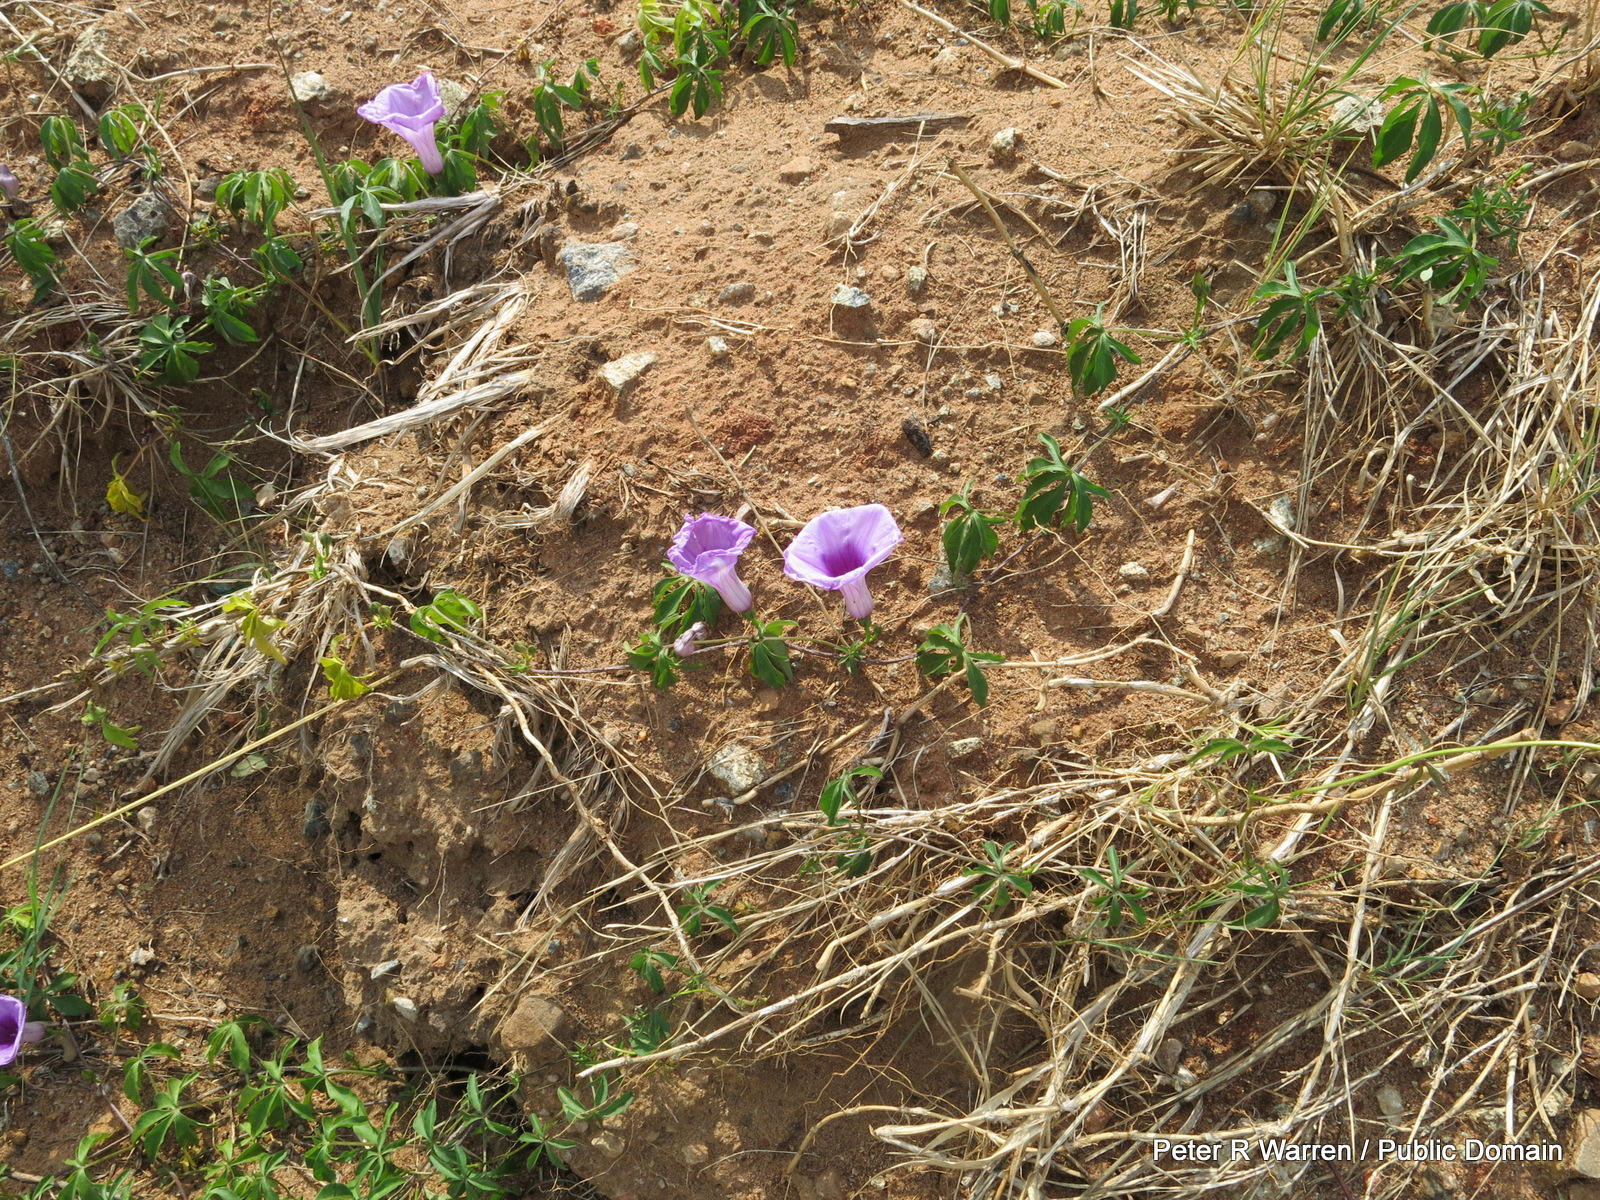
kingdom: Plantae
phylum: Tracheophyta
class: Magnoliopsida
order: Solanales
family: Convolvulaceae
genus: Ipomoea
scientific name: Ipomoea cairica
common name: Mile a minute vine
